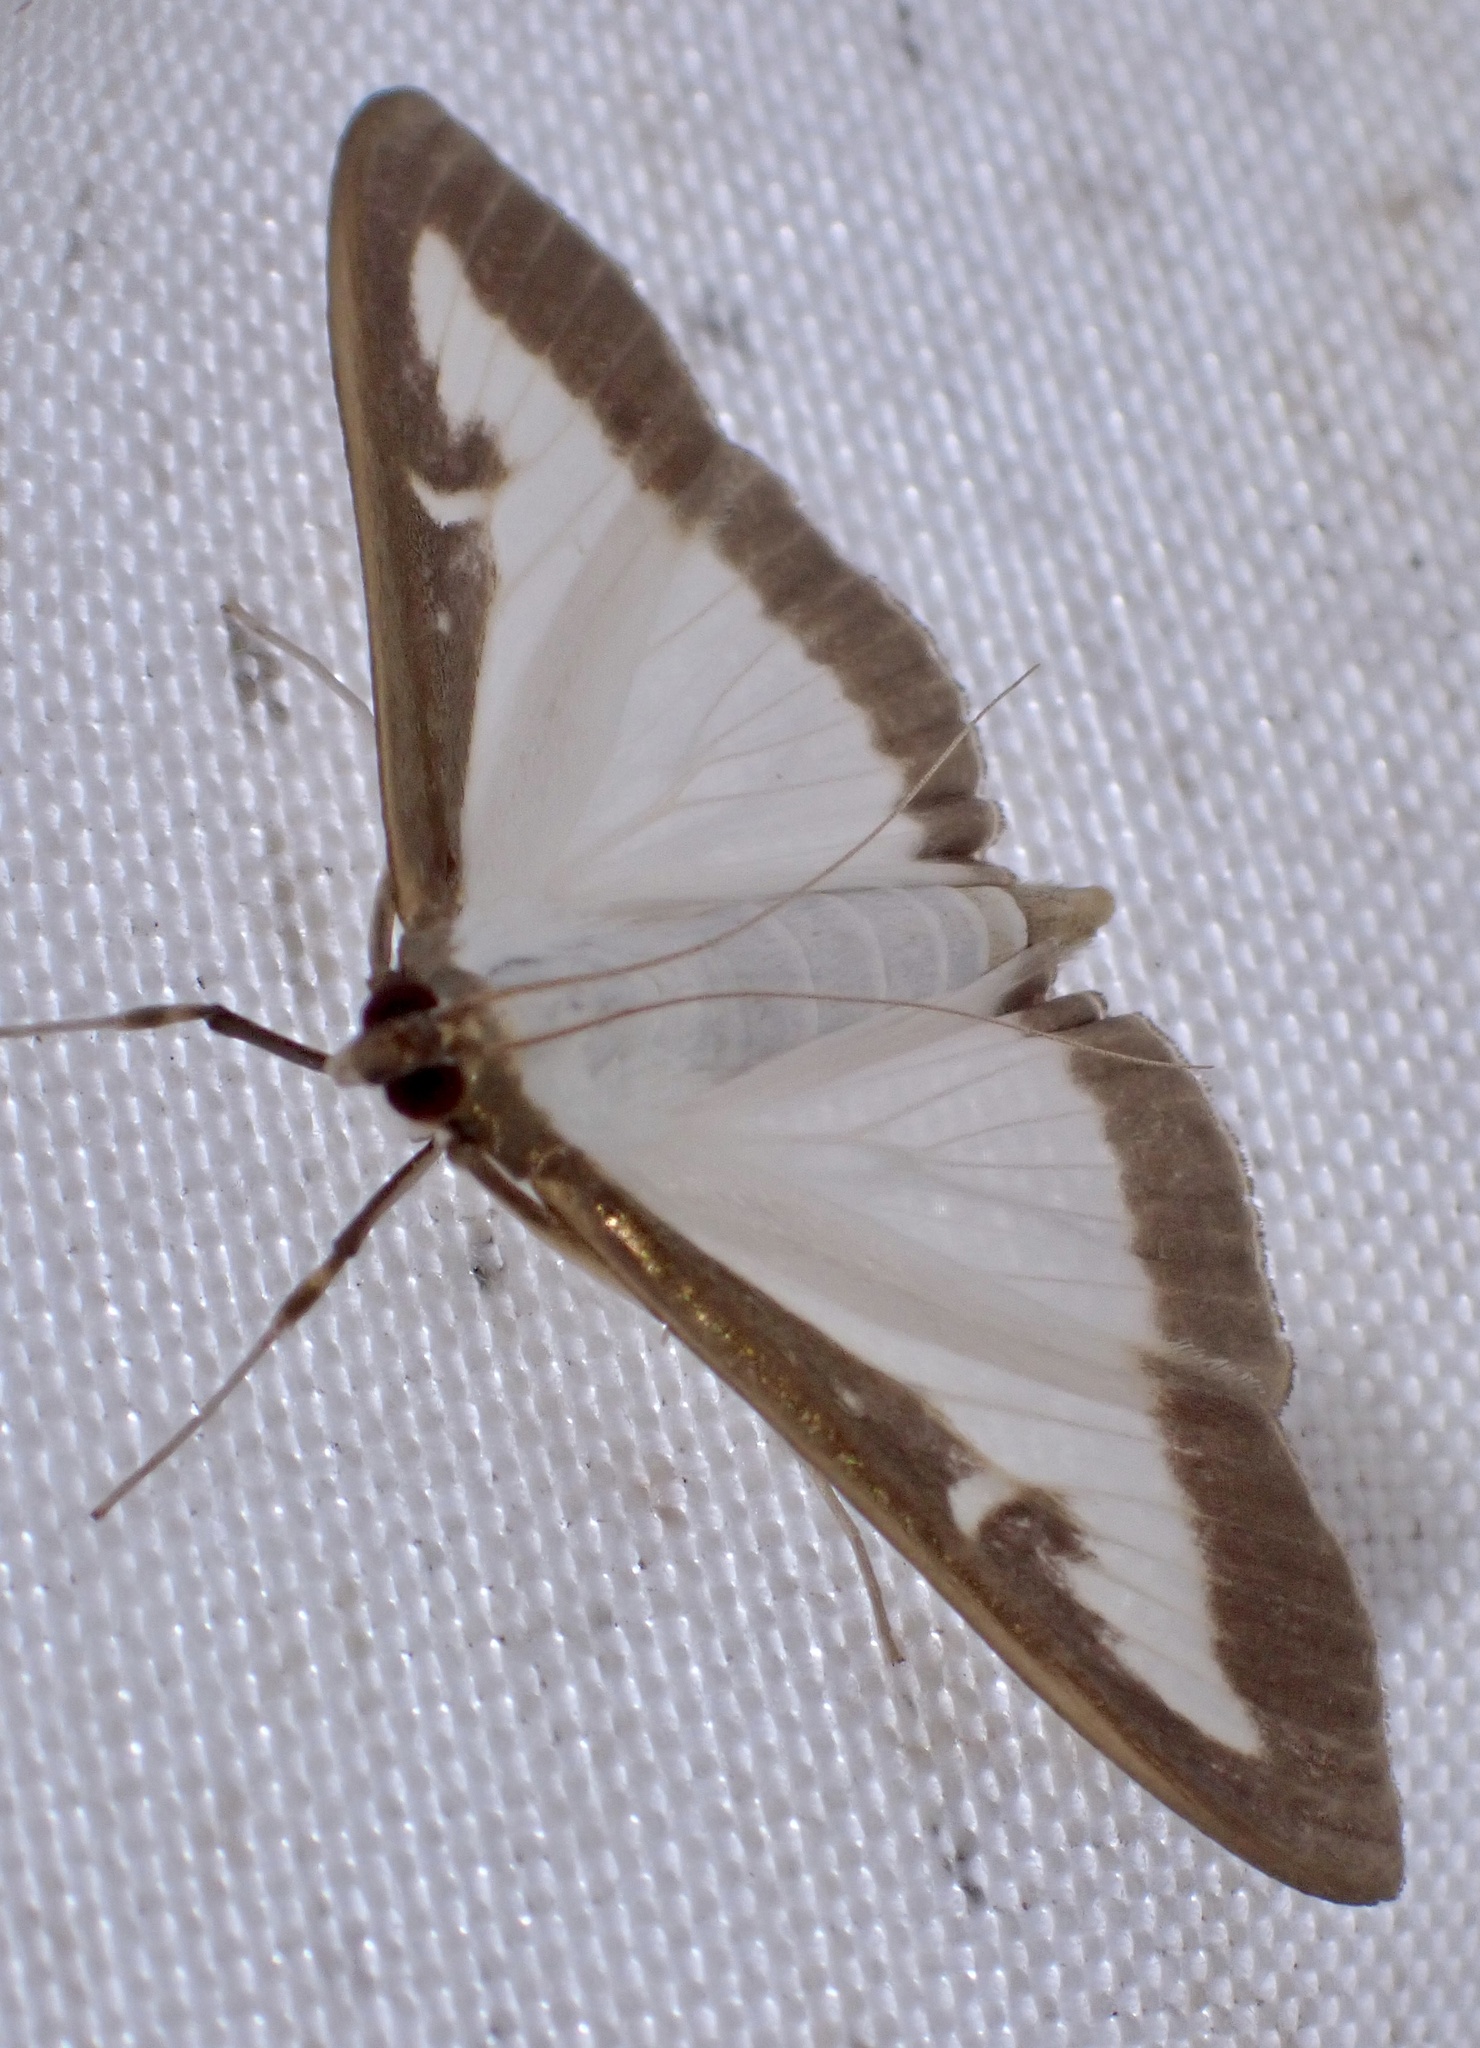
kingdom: Animalia
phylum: Arthropoda
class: Insecta
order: Lepidoptera
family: Crambidae
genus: Cydalima
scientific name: Cydalima perspectalis
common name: Box tree moth
